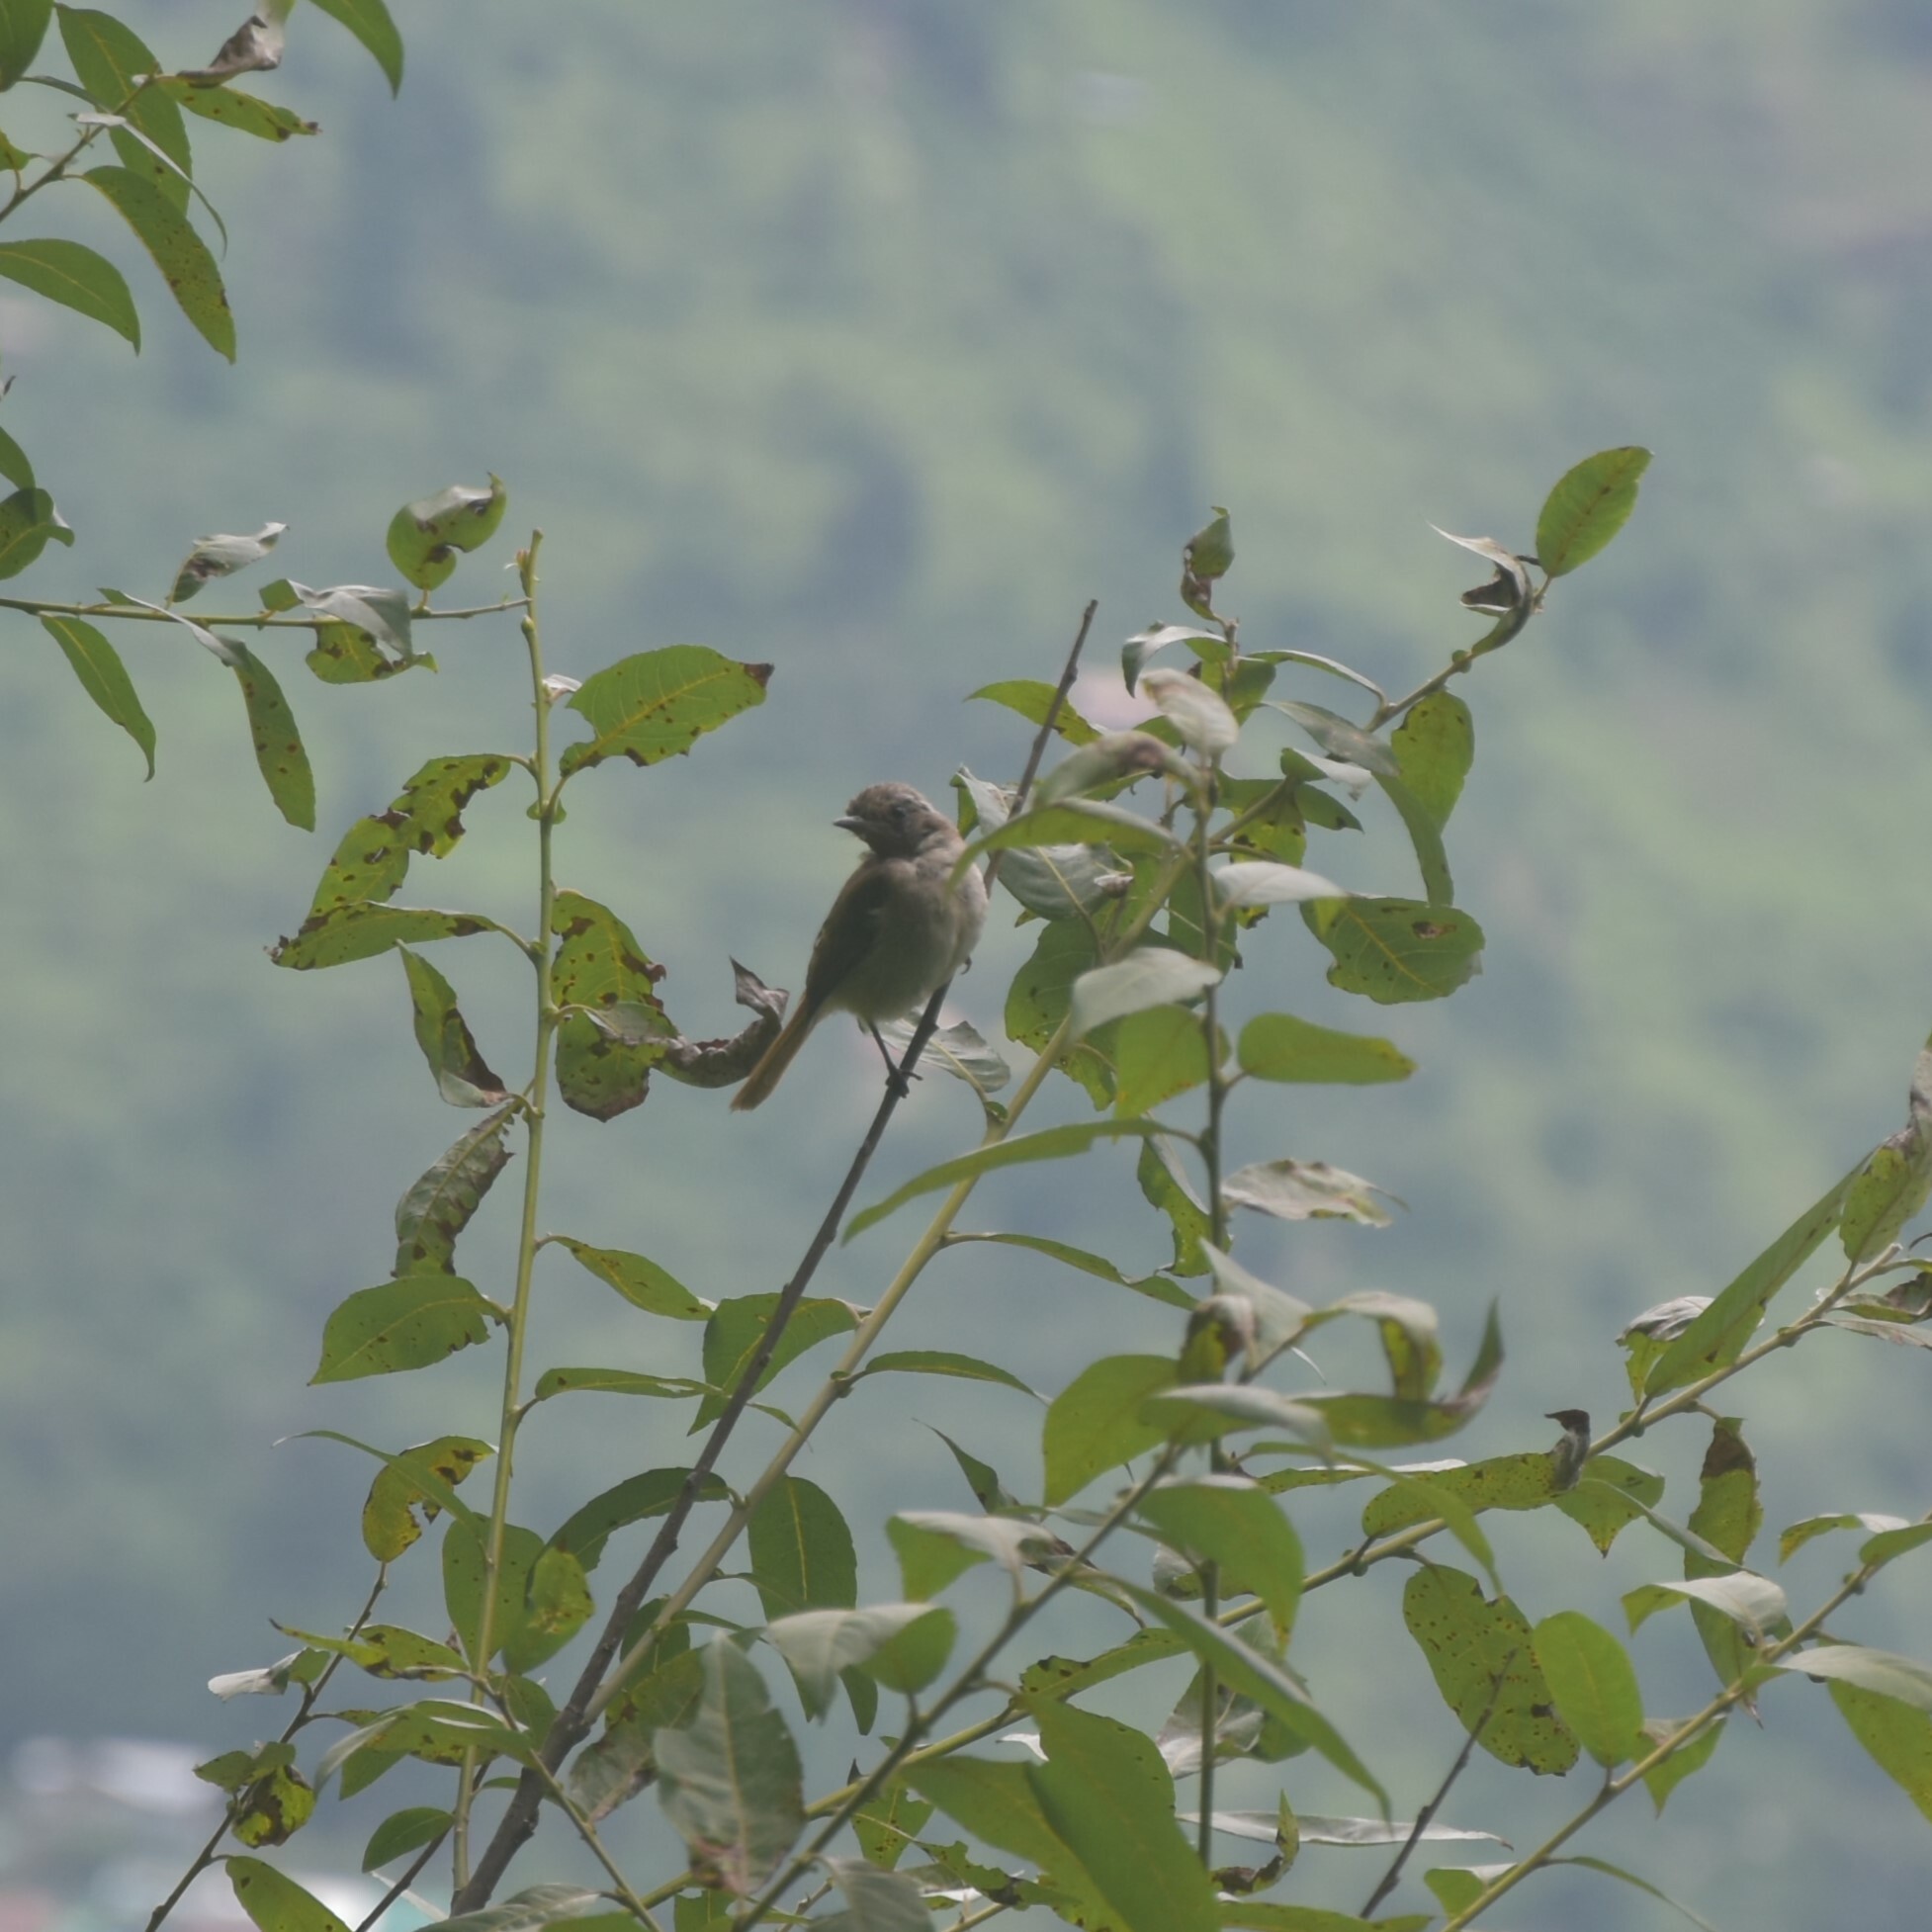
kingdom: Animalia
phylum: Chordata
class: Aves
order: Passeriformes
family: Muscicapidae
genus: Saxicola
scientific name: Saxicola ferreus
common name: Grey bush chat
